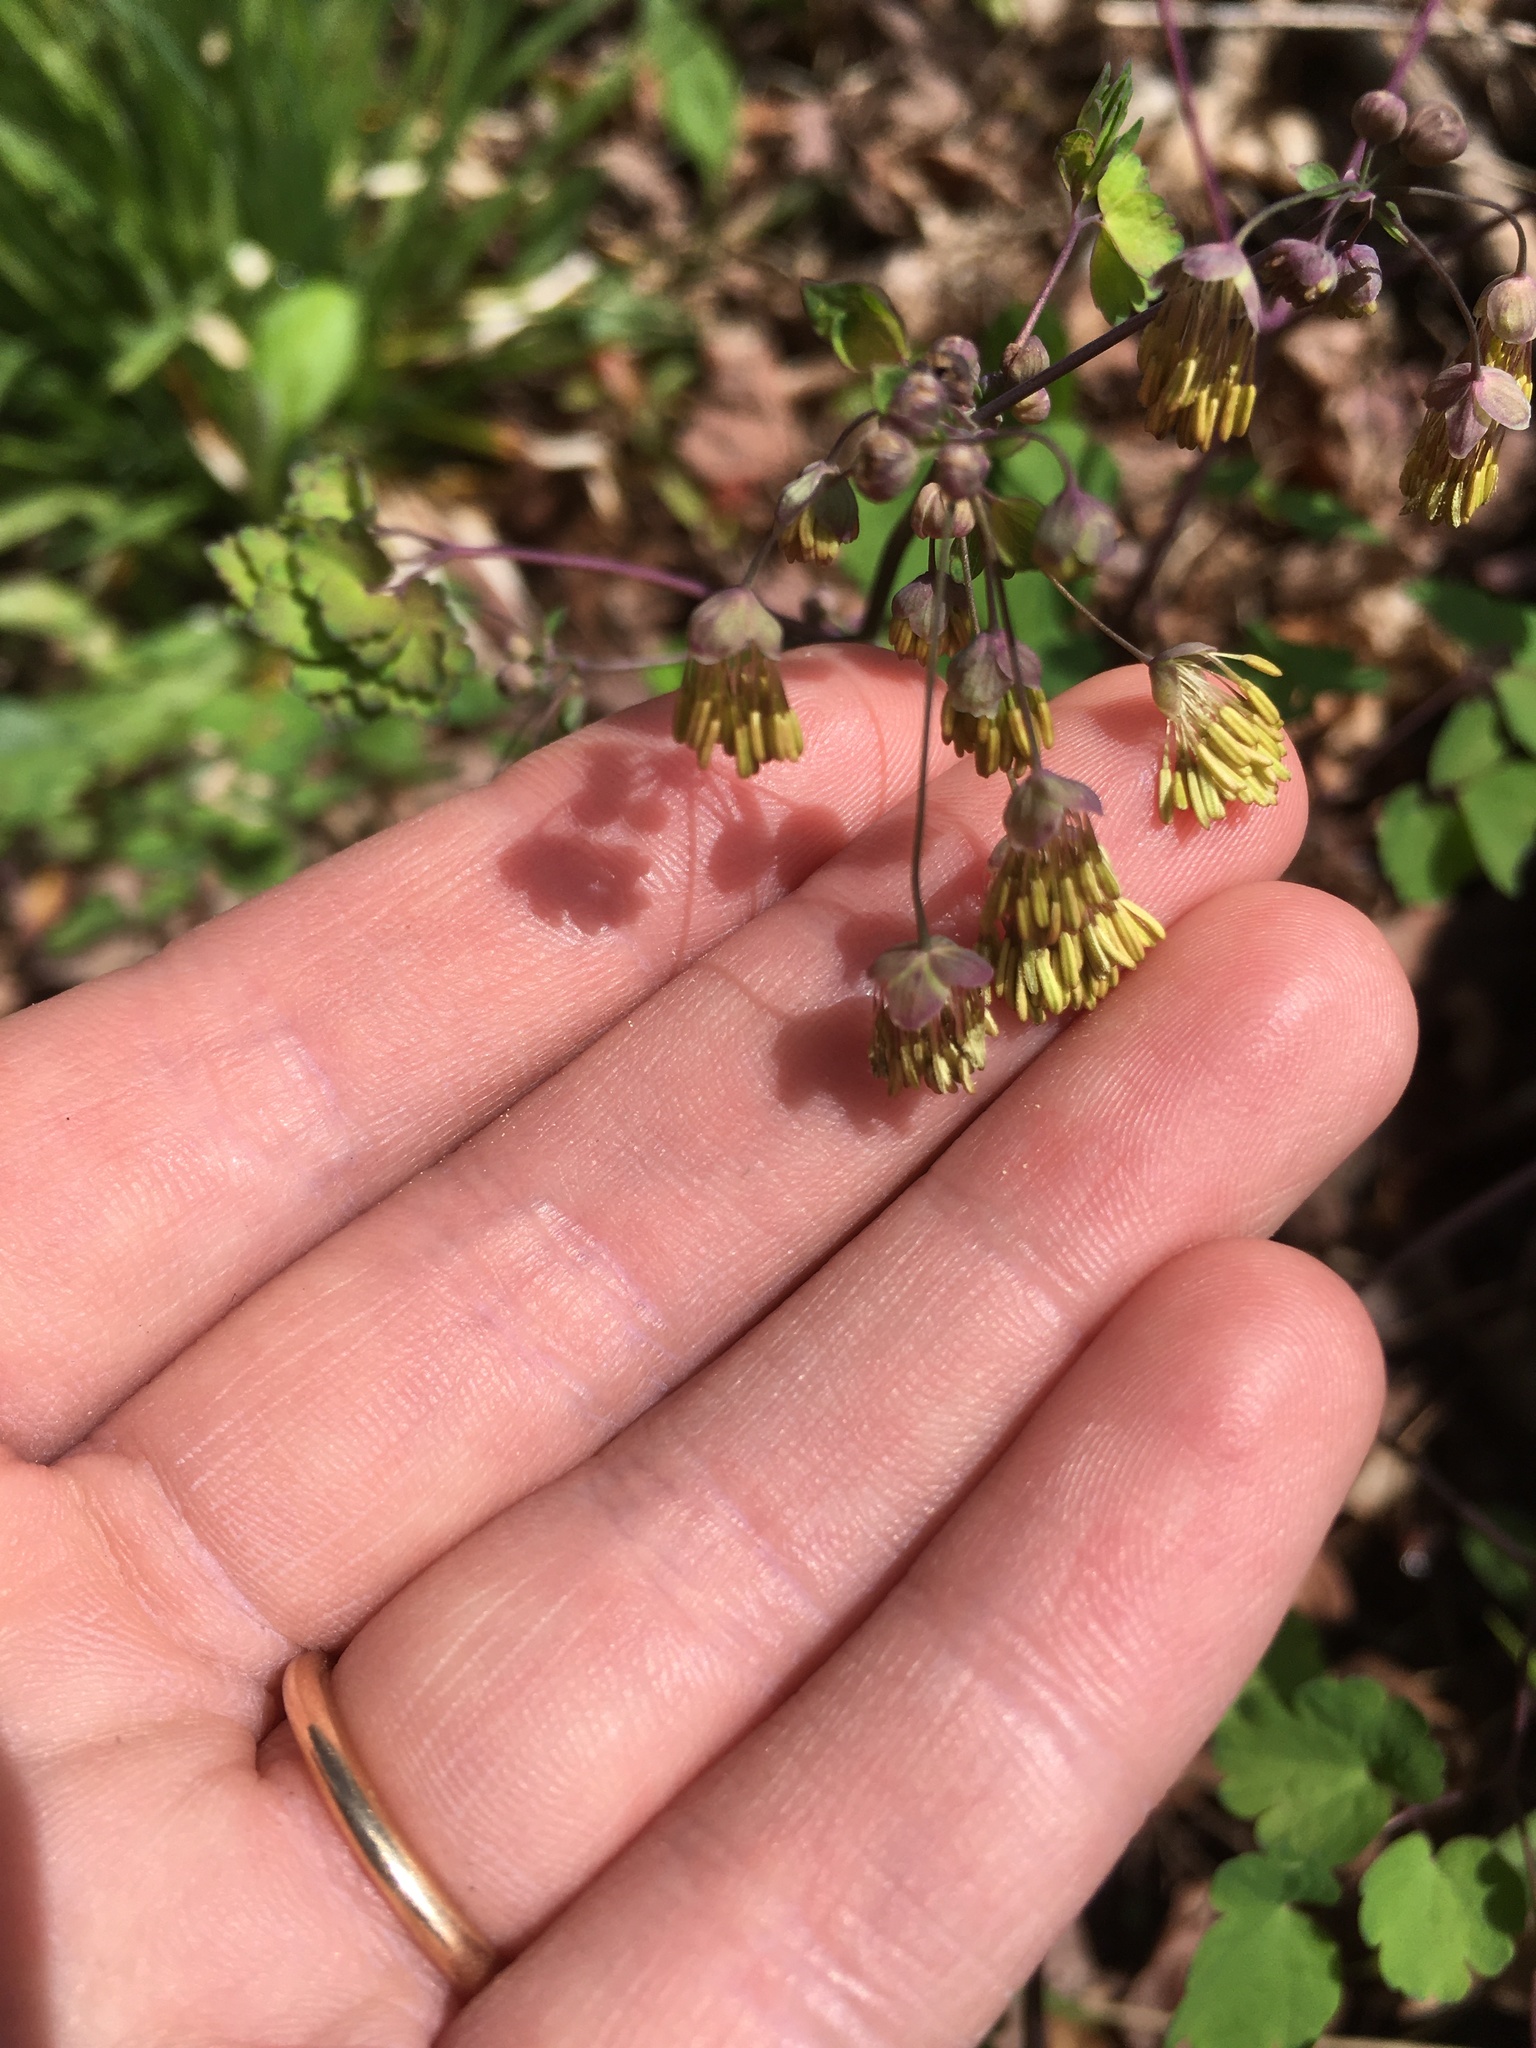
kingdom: Plantae
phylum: Tracheophyta
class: Magnoliopsida
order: Ranunculales
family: Ranunculaceae
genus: Thalictrum
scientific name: Thalictrum dioicum
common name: Early meadow-rue
